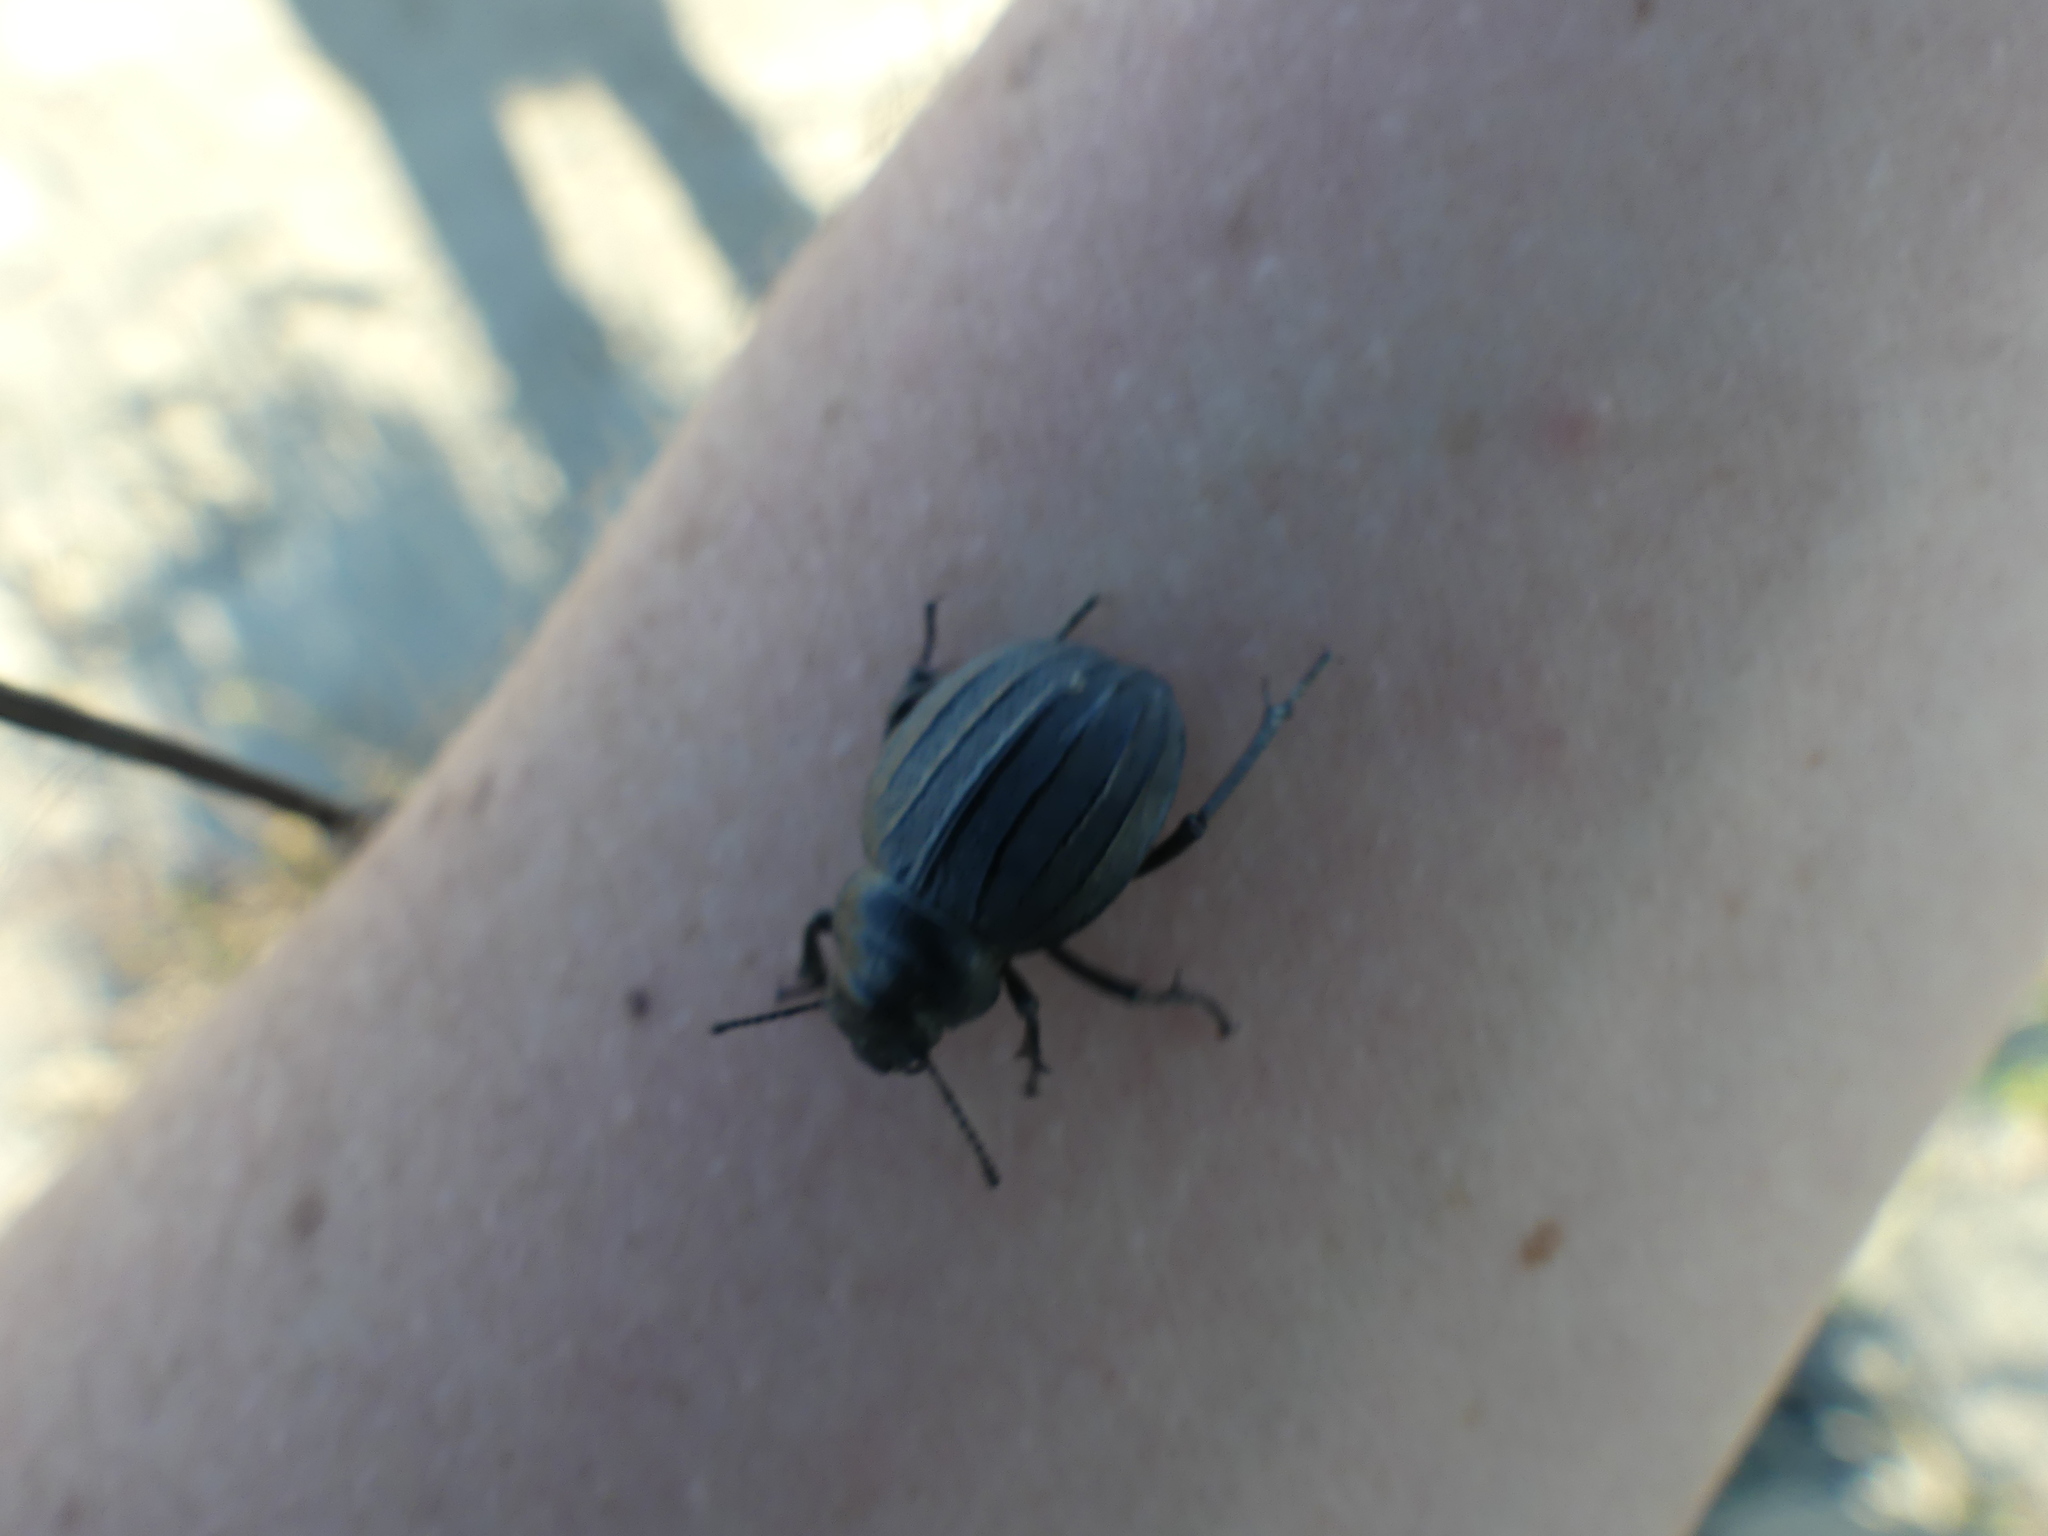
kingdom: Animalia
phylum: Arthropoda
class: Insecta
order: Coleoptera
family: Tenebrionidae
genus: Pimelia
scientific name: Pimelia muricata
